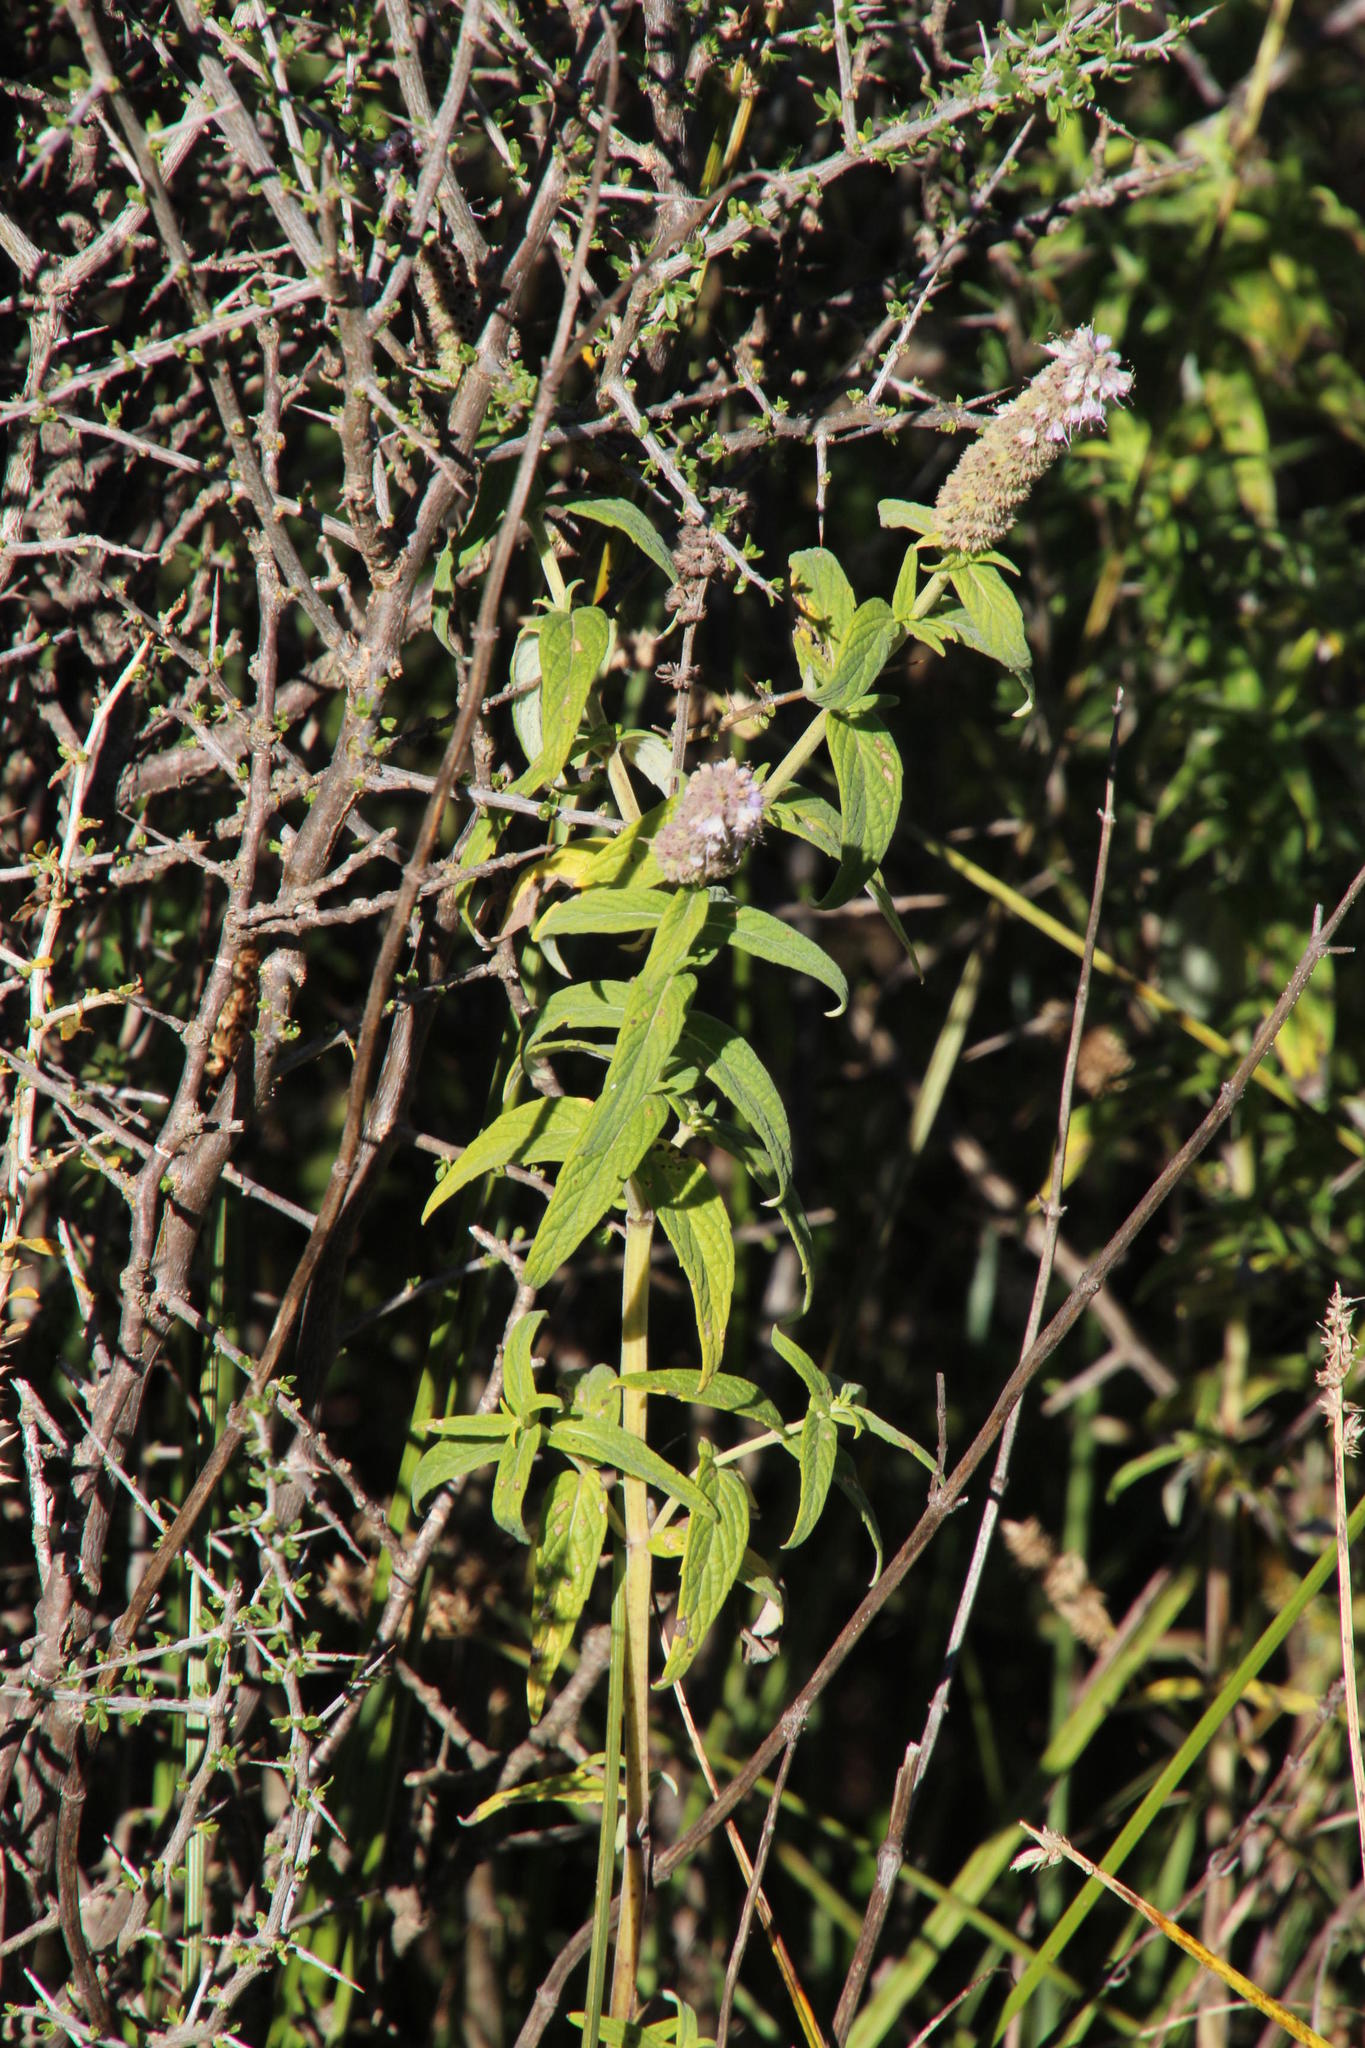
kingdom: Plantae
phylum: Tracheophyta
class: Magnoliopsida
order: Lamiales
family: Lamiaceae
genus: Mentha
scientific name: Mentha longifolia
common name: Horse mint
